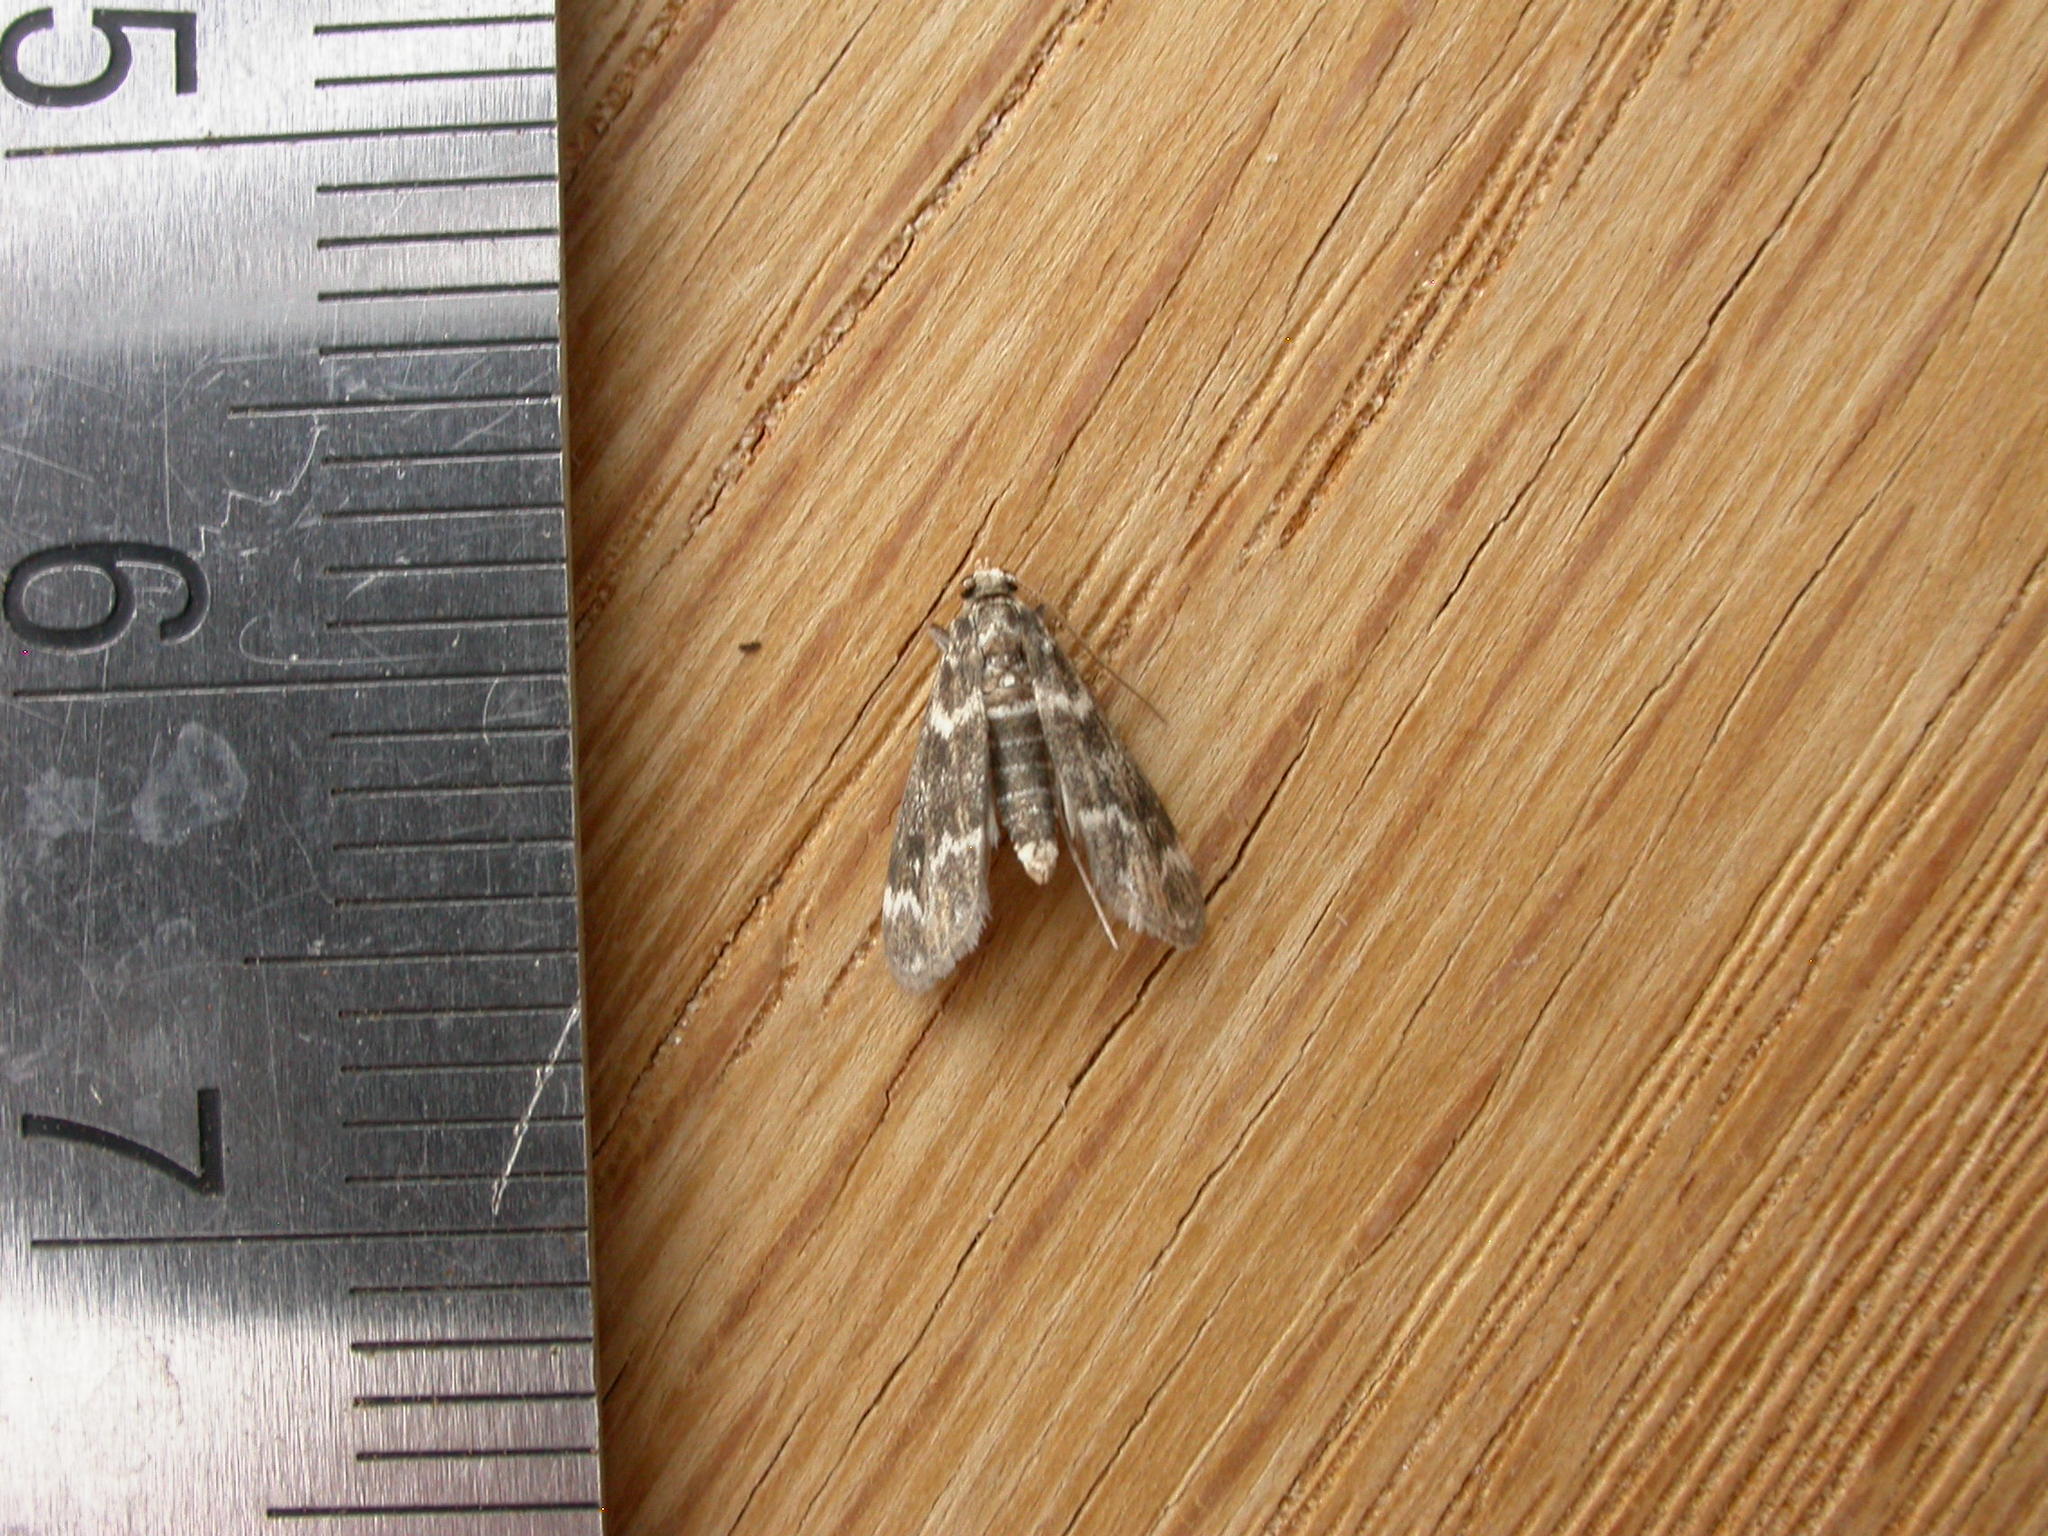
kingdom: Animalia
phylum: Arthropoda
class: Insecta
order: Lepidoptera
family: Crambidae
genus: Hygraula
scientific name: Hygraula nitens
